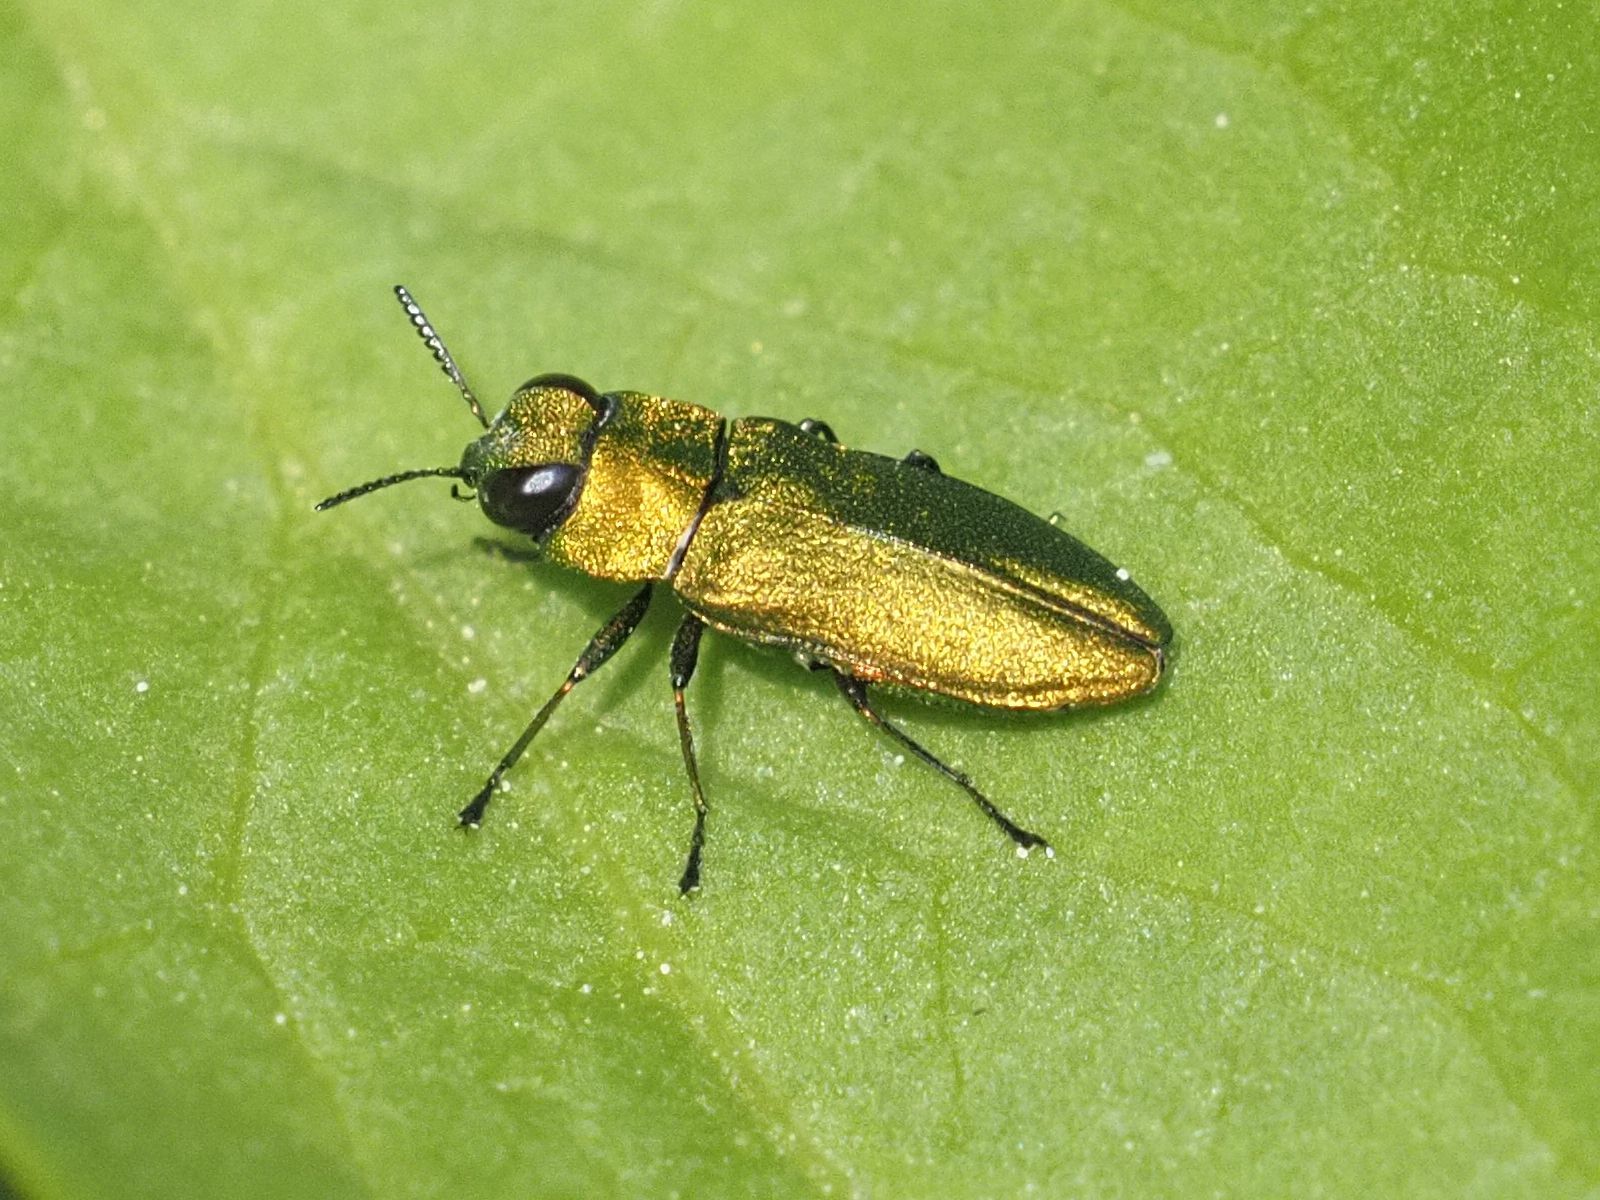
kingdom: Animalia
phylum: Arthropoda
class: Insecta
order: Coleoptera
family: Buprestidae
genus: Anthaxia
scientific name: Anthaxia nitidula
